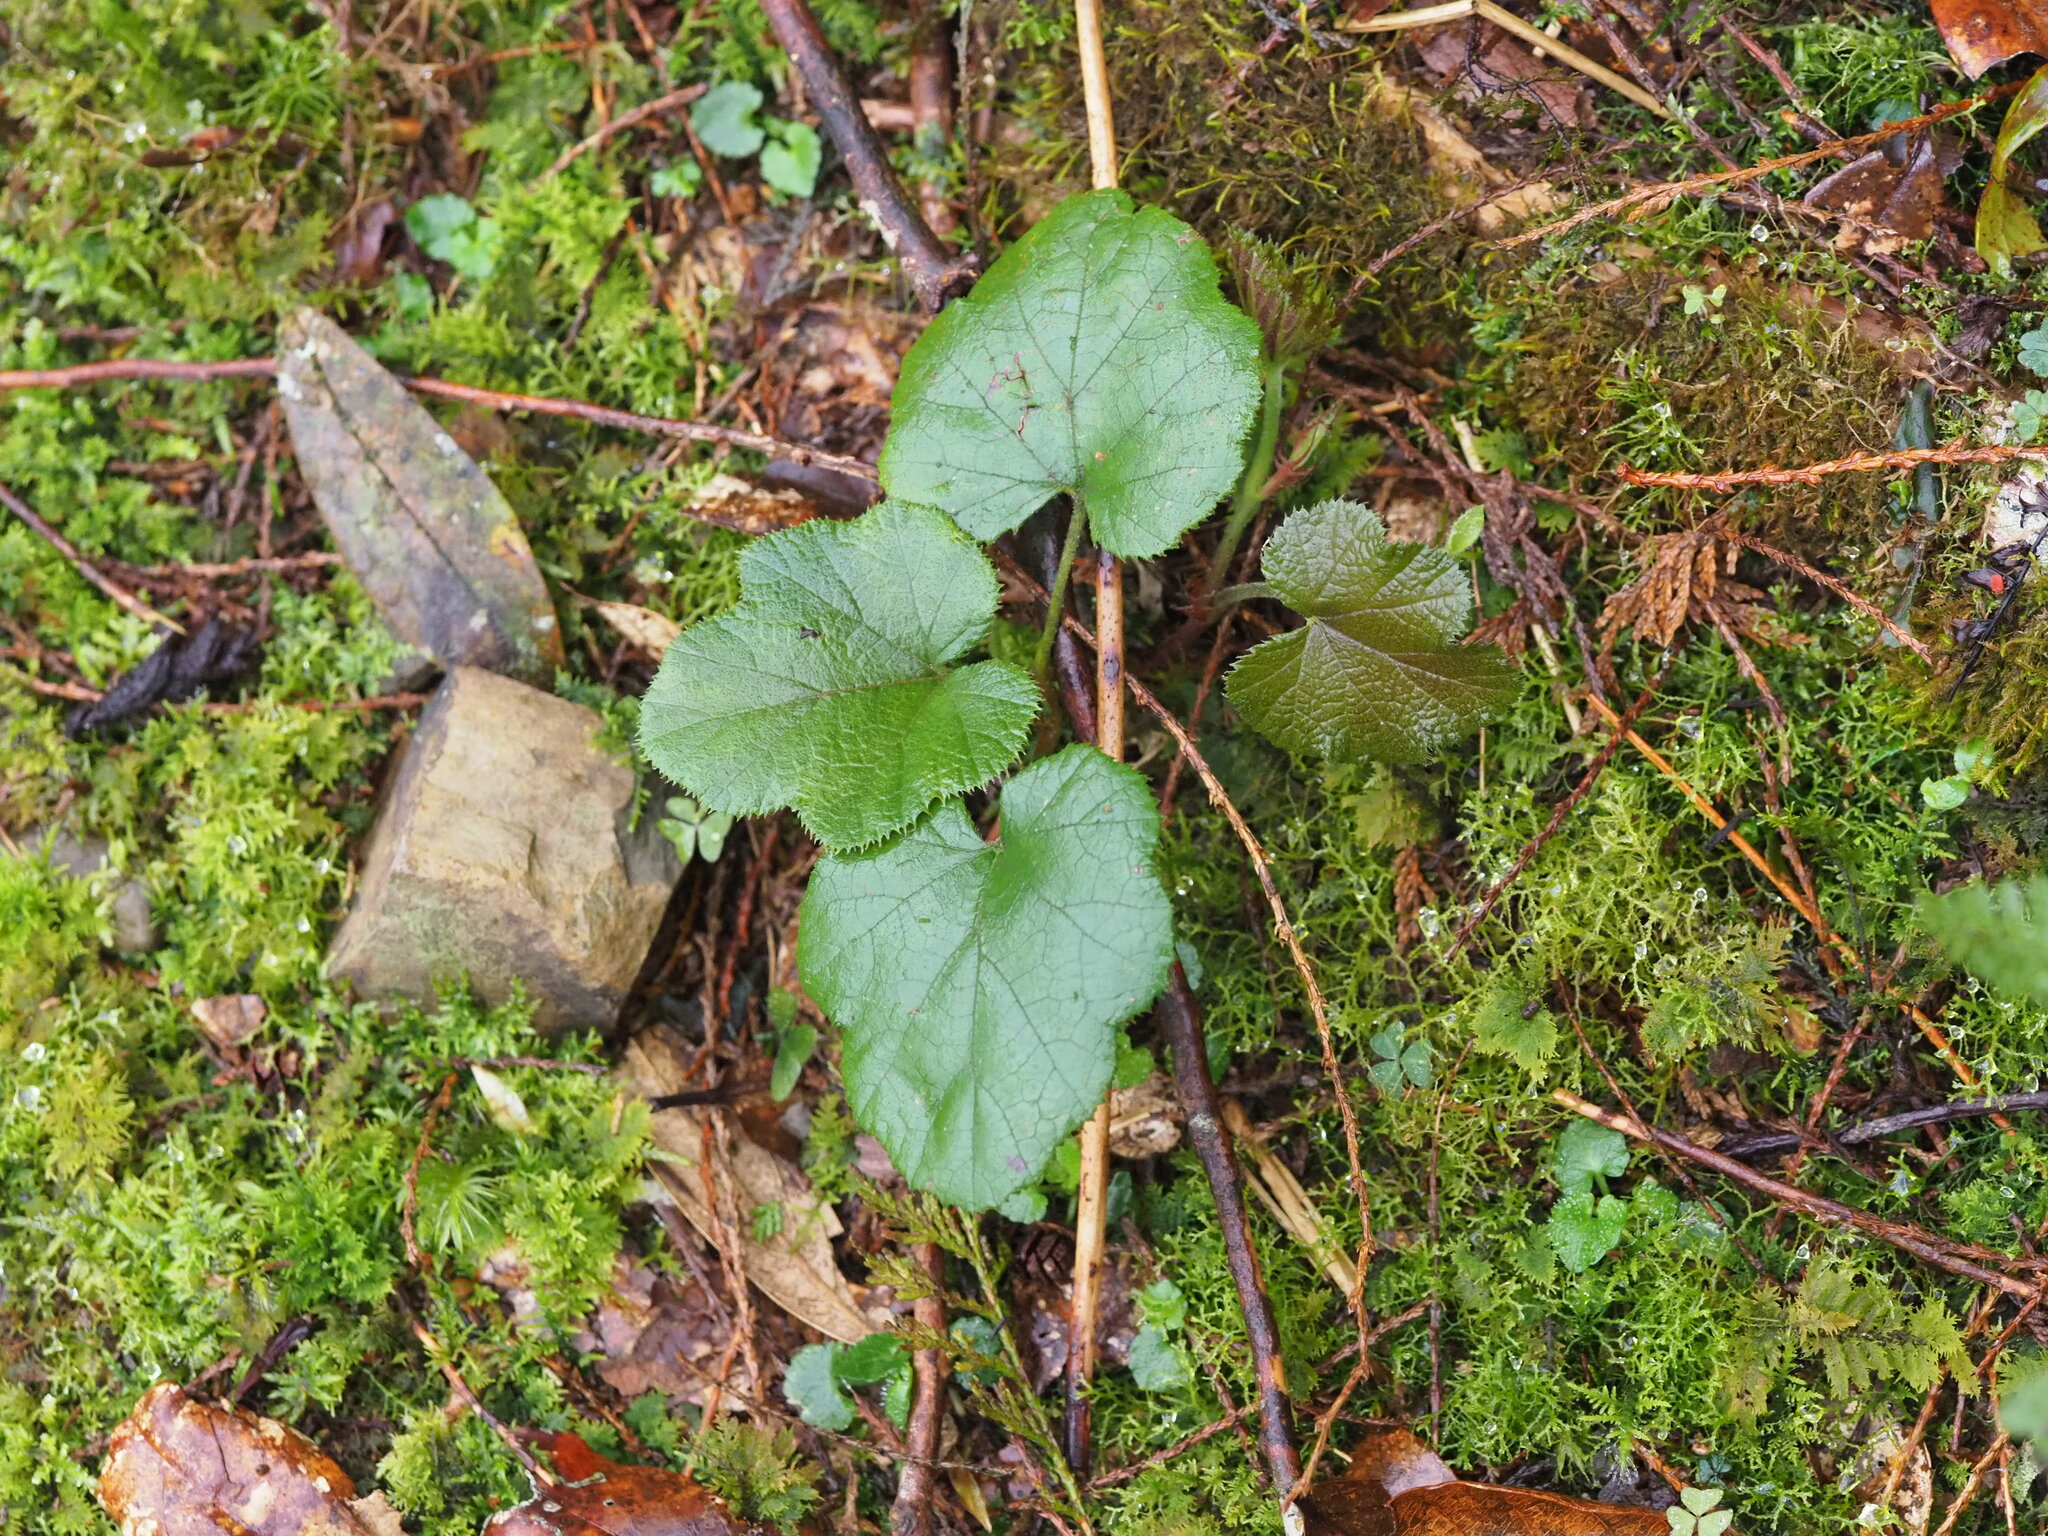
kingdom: Plantae
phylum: Tracheophyta
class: Magnoliopsida
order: Rosales
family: Rosaceae
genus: Rubus
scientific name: Rubus buergeri
